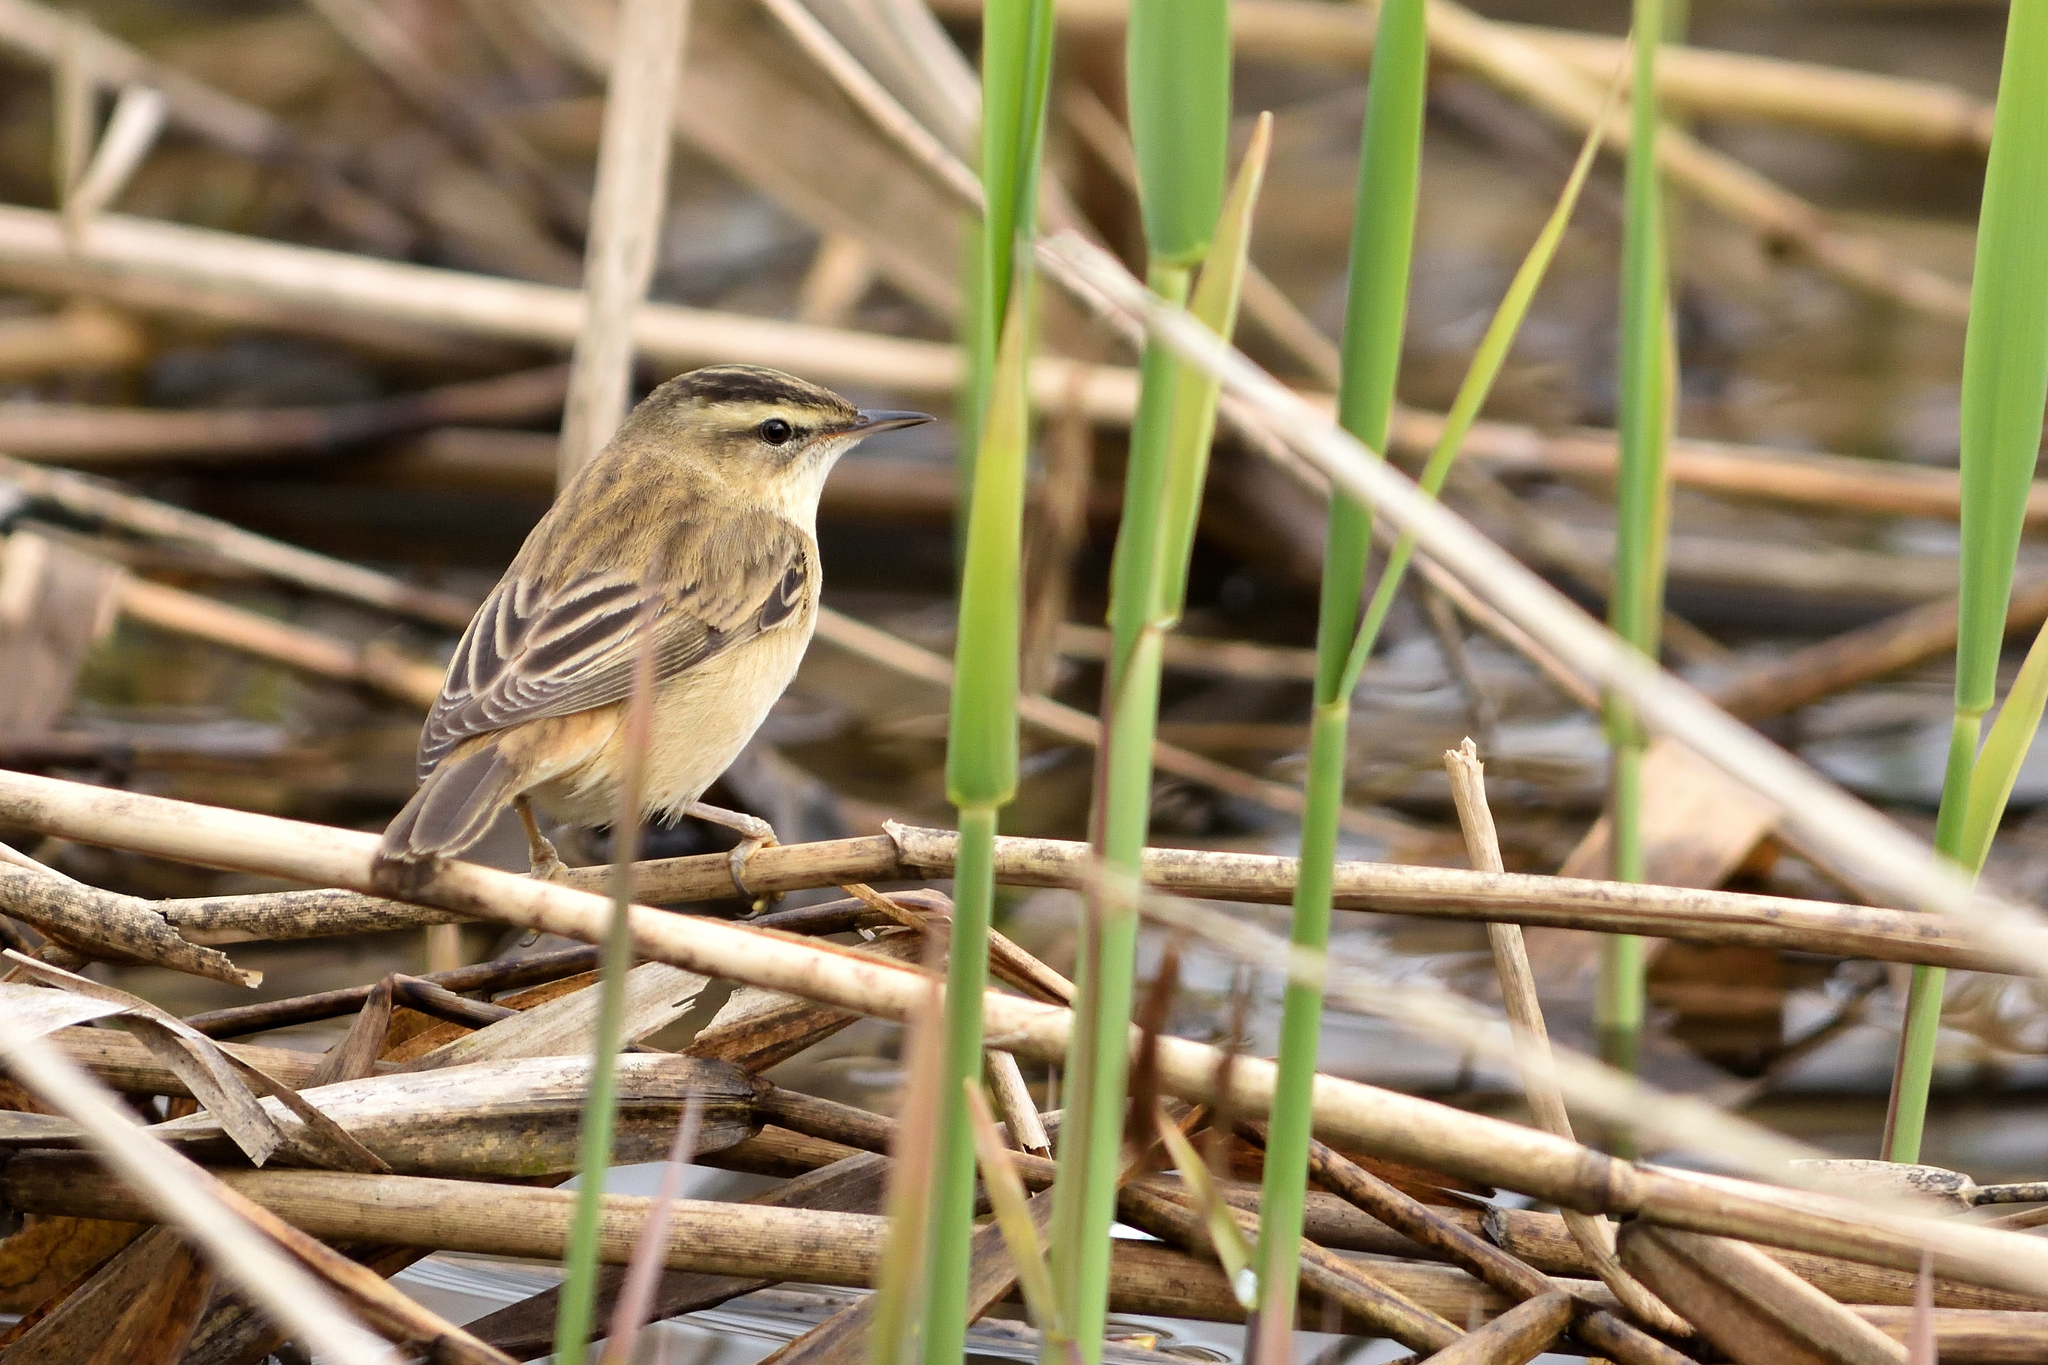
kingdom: Animalia
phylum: Chordata
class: Aves
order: Passeriformes
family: Acrocephalidae
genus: Acrocephalus
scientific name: Acrocephalus schoenobaenus
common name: Sedge warbler
